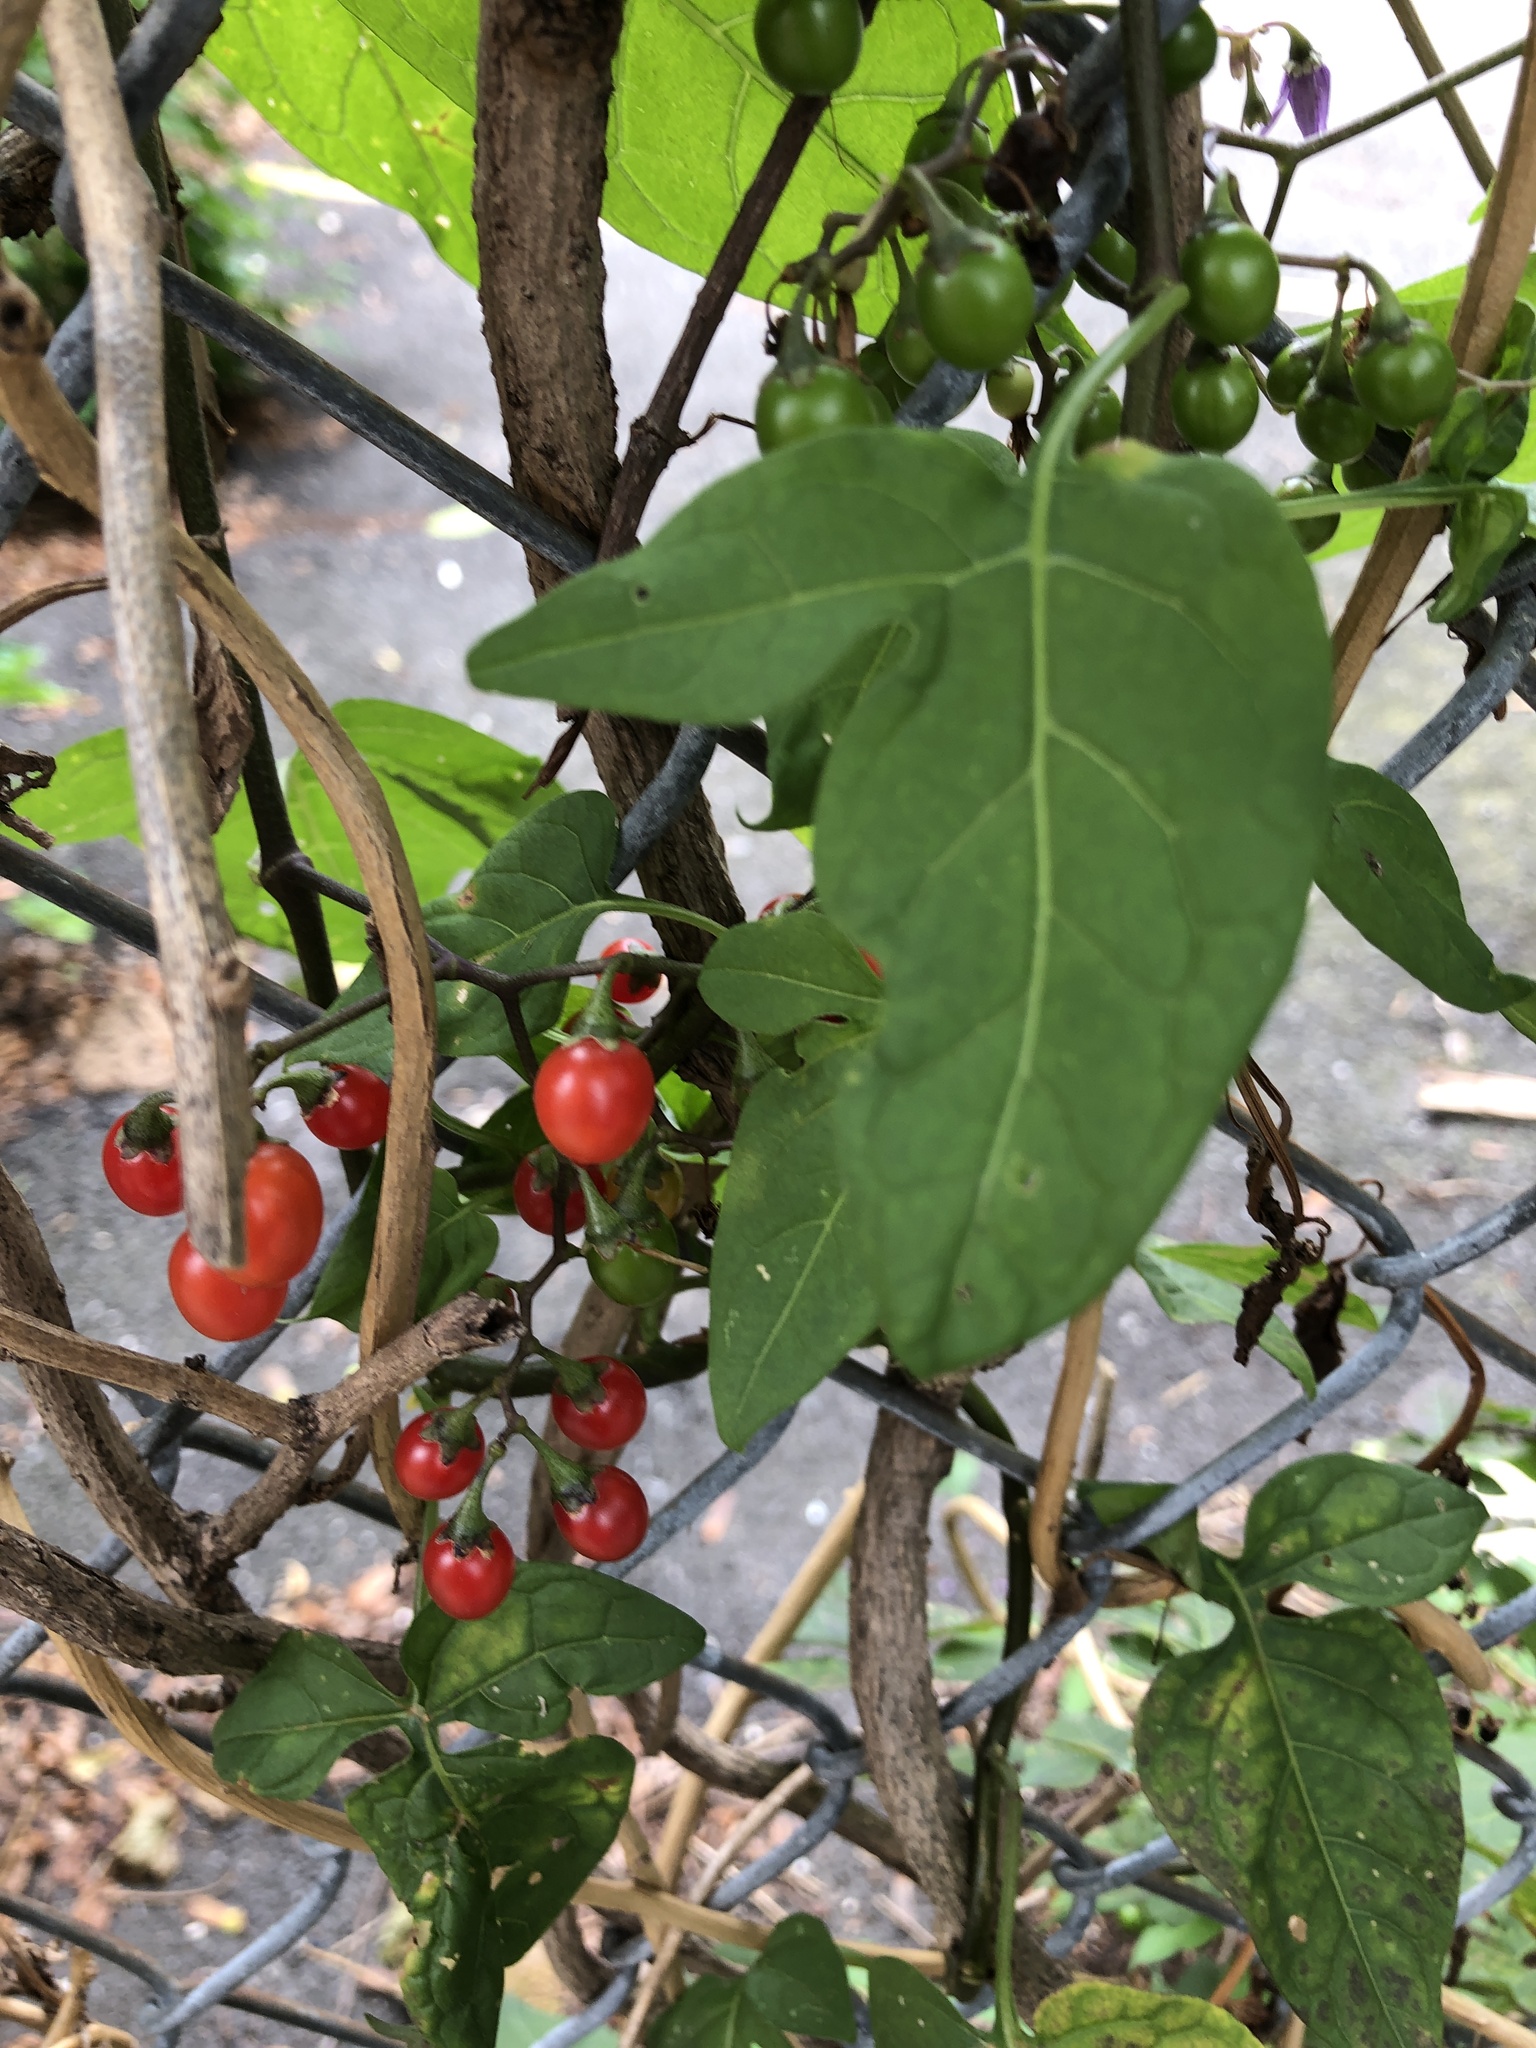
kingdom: Plantae
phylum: Tracheophyta
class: Magnoliopsida
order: Solanales
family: Solanaceae
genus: Solanum
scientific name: Solanum dulcamara
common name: Climbing nightshade
